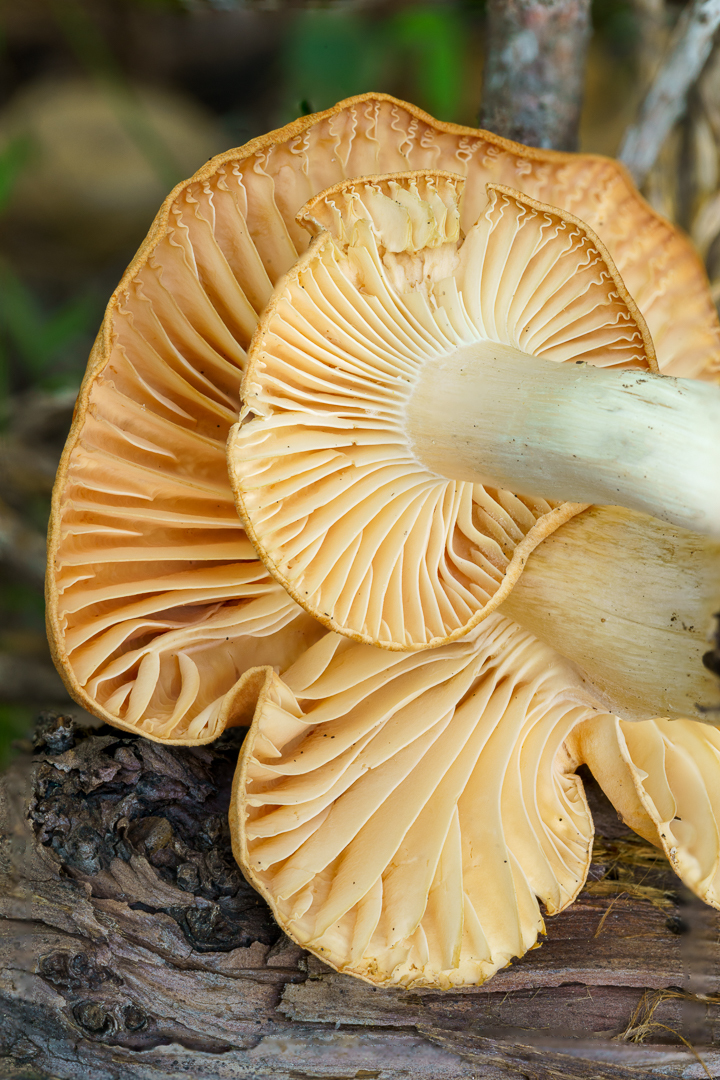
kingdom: Fungi
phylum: Basidiomycota
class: Agaricomycetes
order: Agaricales
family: Hygrophoraceae
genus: Cuphophyllus
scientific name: Cuphophyllus pratensis
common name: Meadow waxcap
